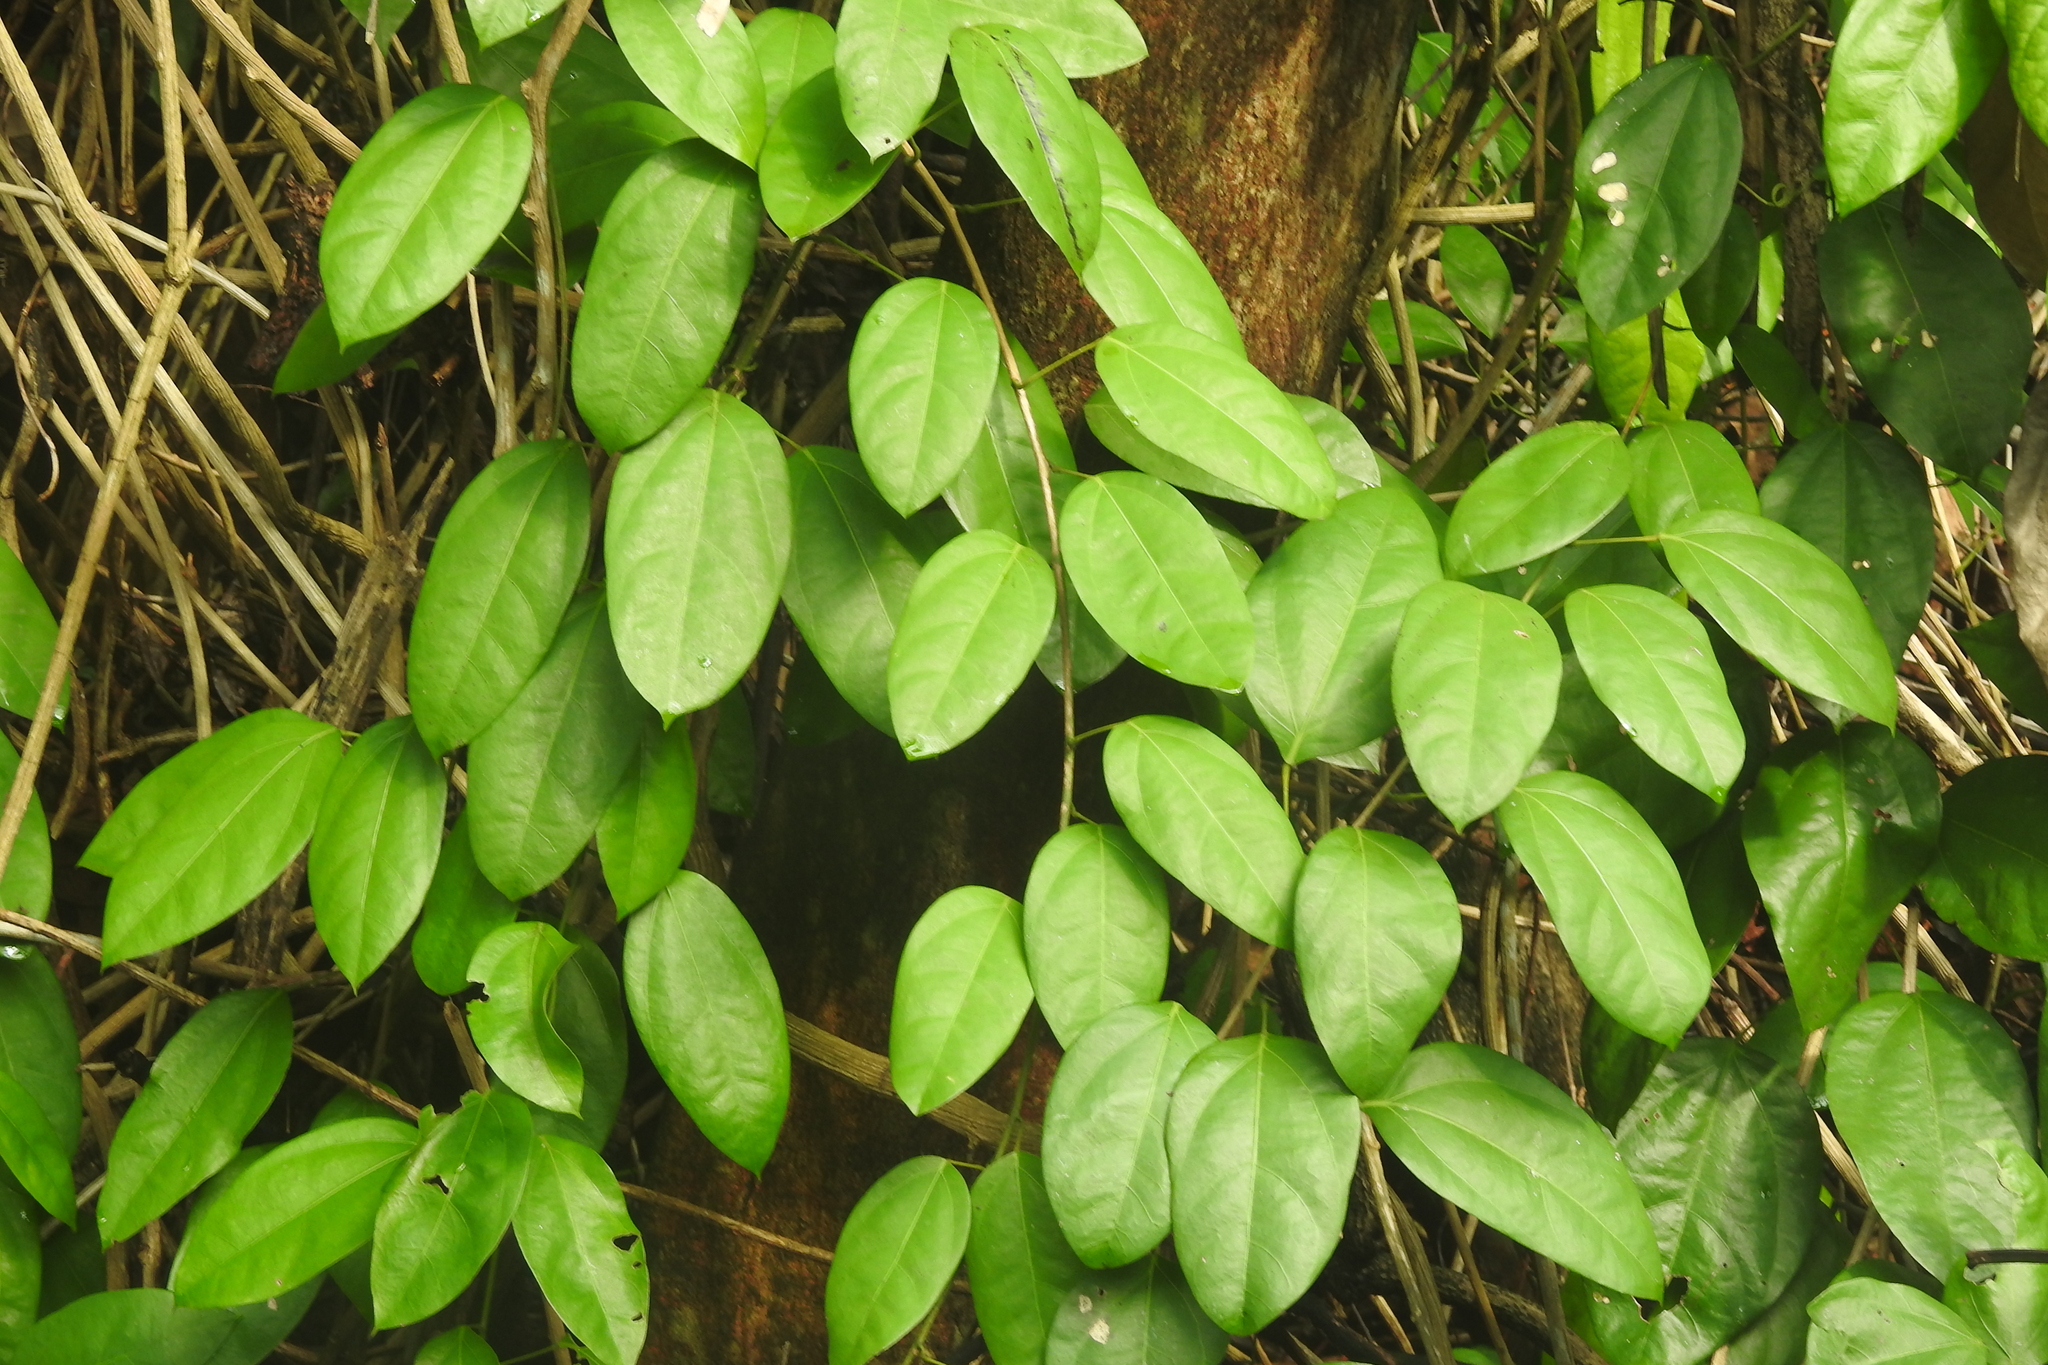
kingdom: Plantae
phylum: Tracheophyta
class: Magnoliopsida
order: Ranunculales
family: Menispermaceae
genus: Fibraurea
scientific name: Fibraurea tinctoria
